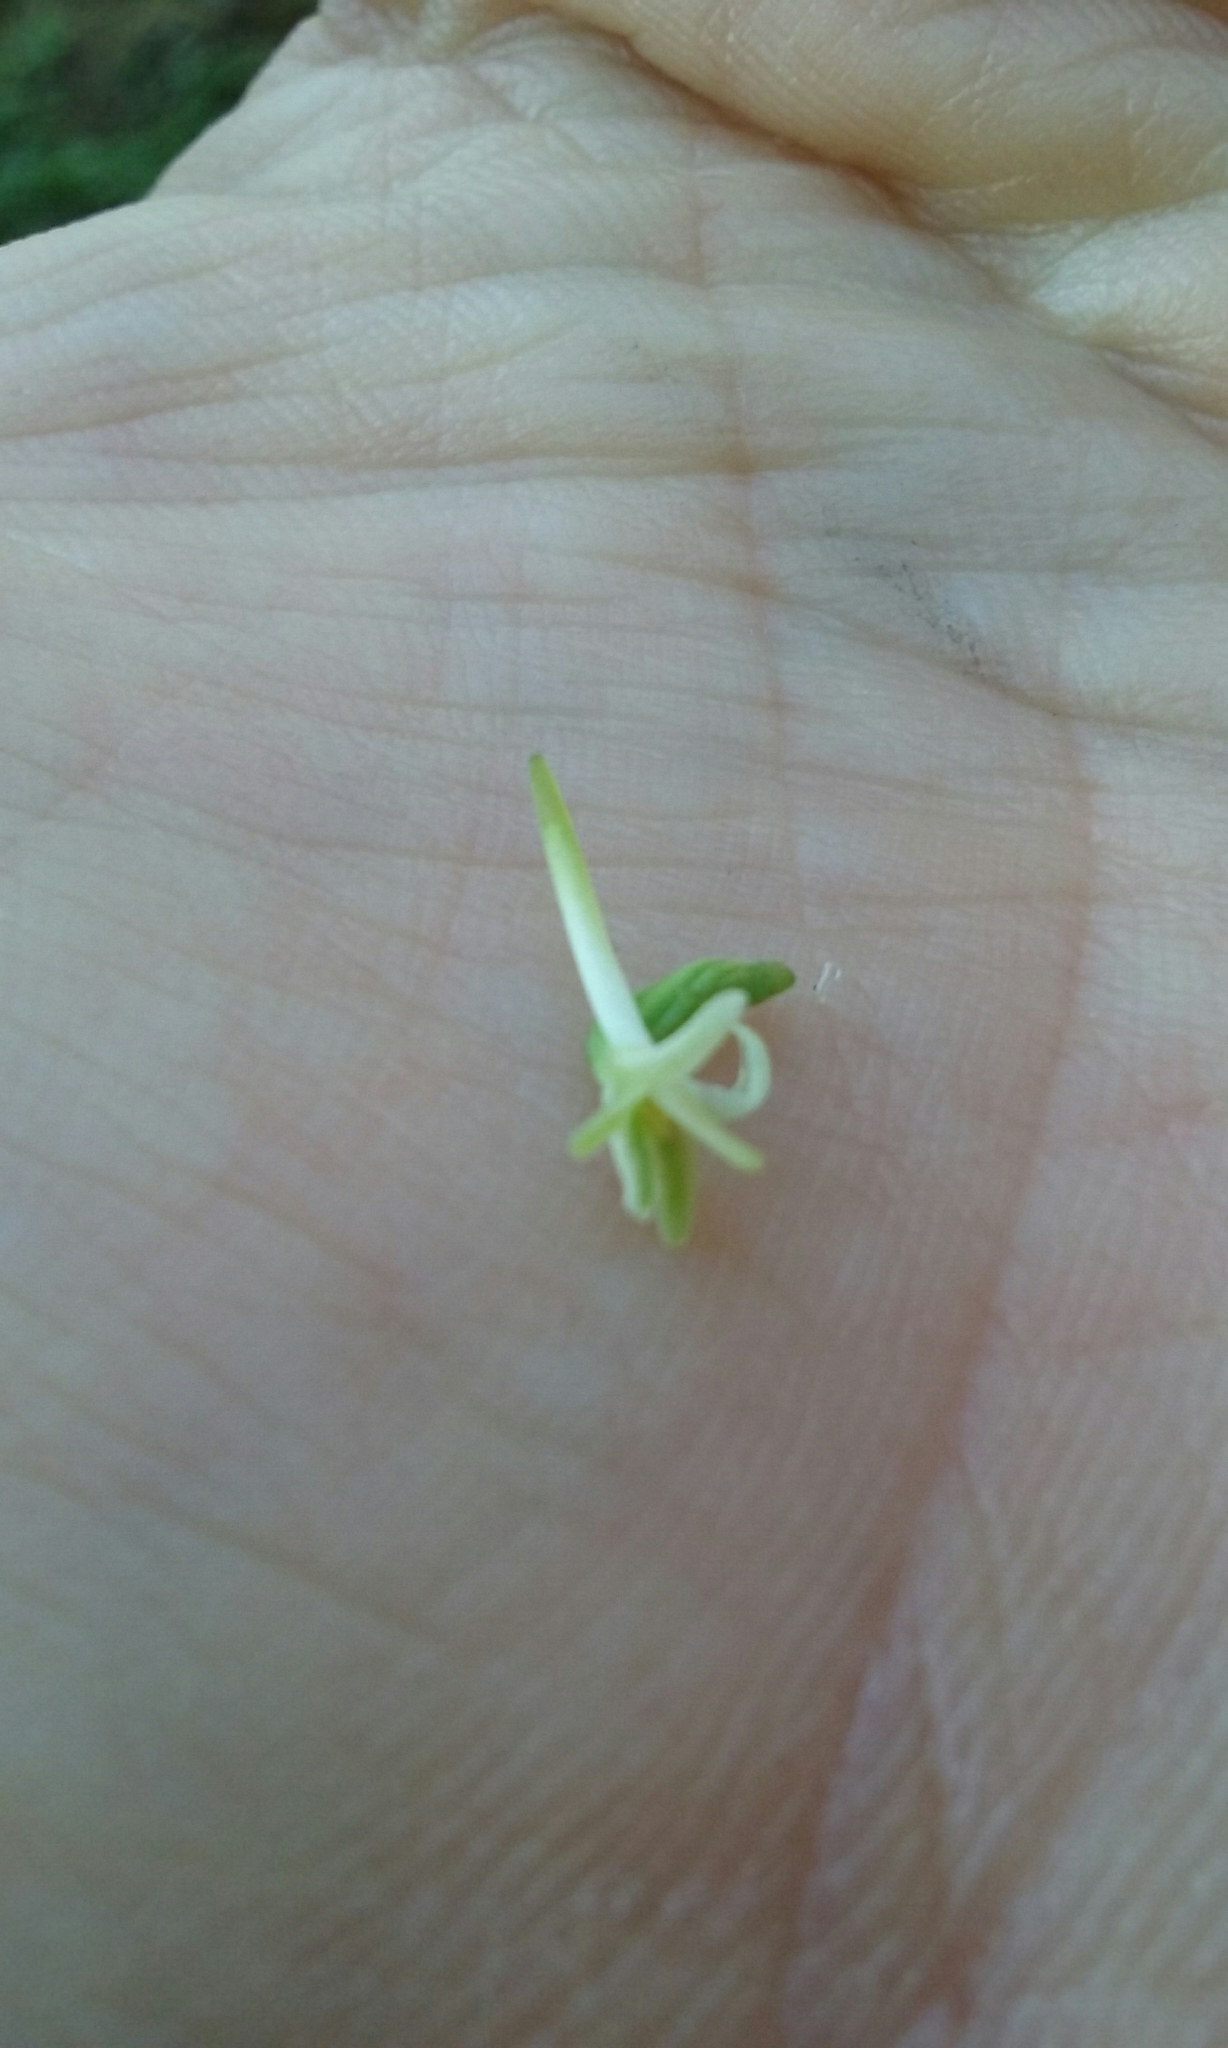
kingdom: Plantae
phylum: Tracheophyta
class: Liliopsida
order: Asparagales
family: Orchidaceae
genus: Platanthera
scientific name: Platanthera transversa
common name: Royal rein orchid
